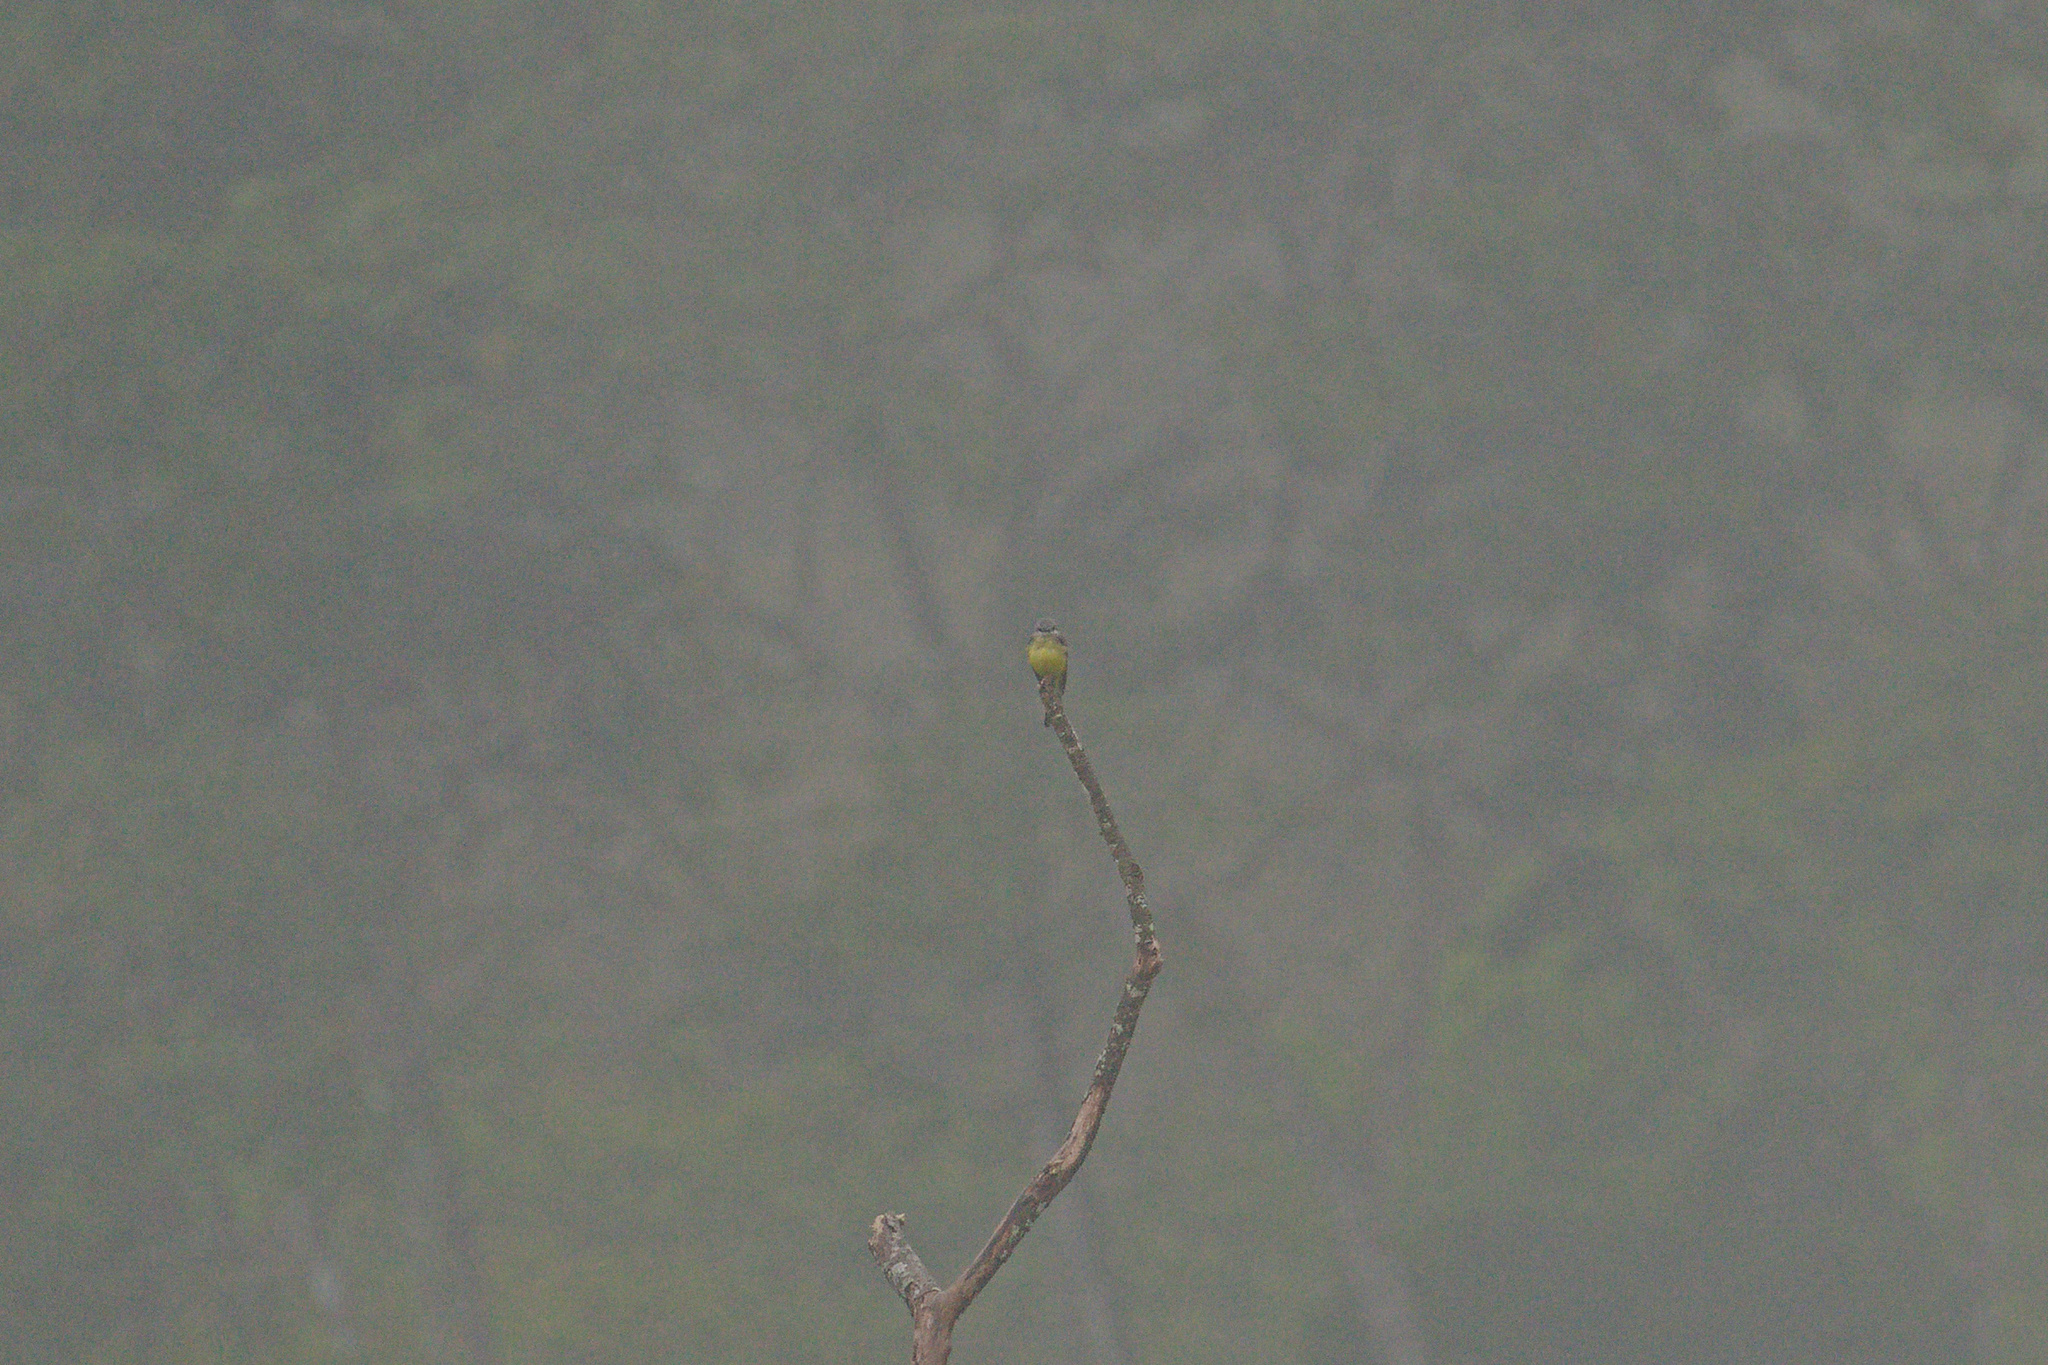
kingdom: Animalia
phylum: Chordata
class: Aves
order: Passeriformes
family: Tyrannidae
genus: Tyrannus
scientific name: Tyrannus melancholicus
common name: Tropical kingbird
